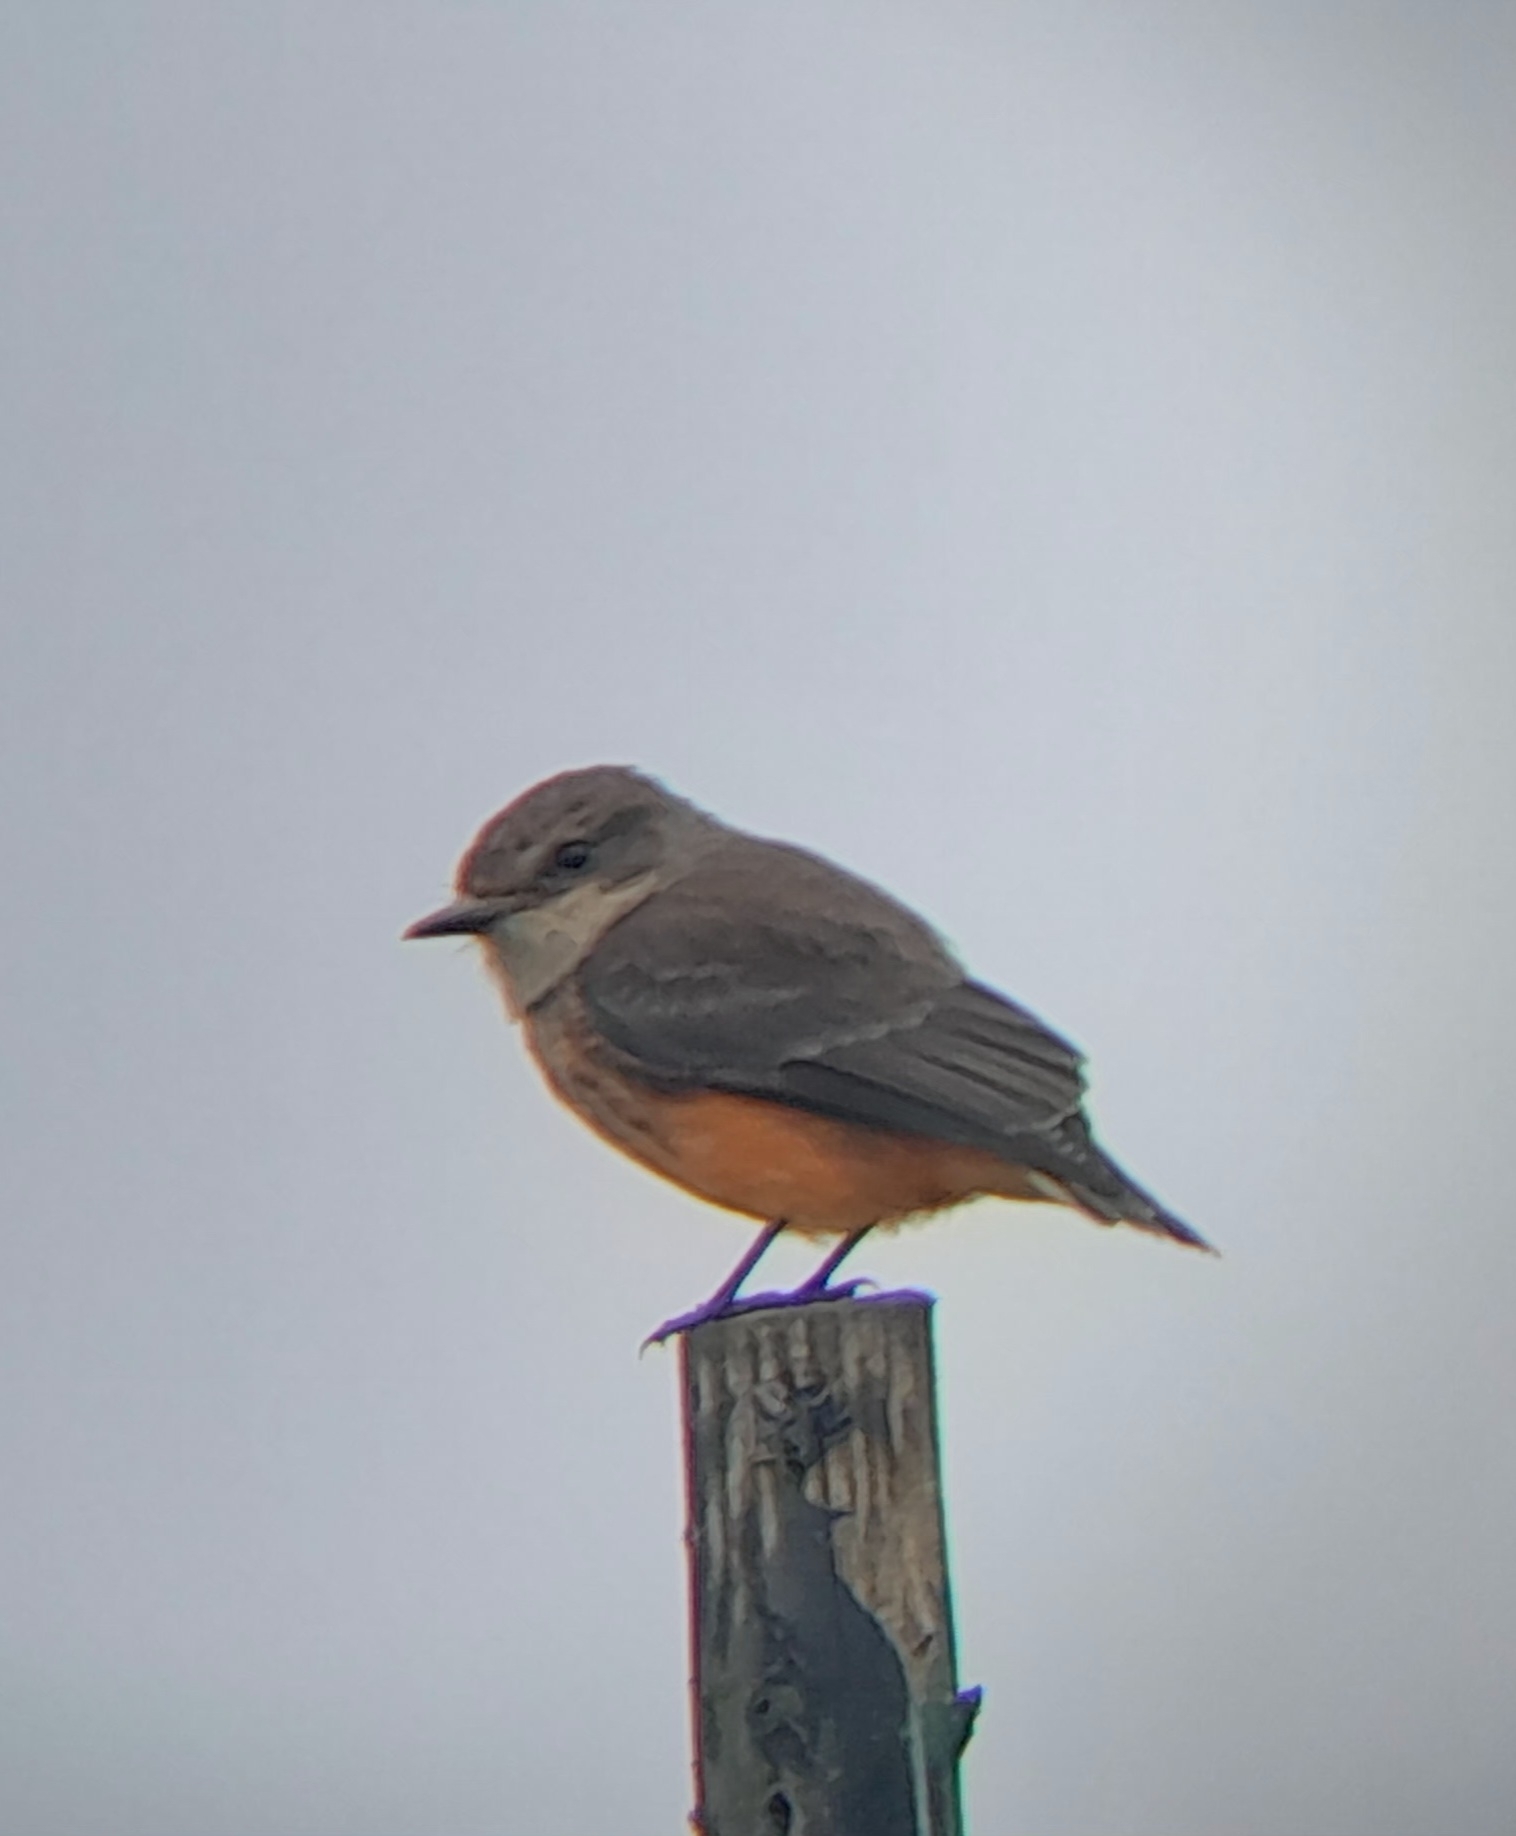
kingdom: Animalia
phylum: Chordata
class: Aves
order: Passeriformes
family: Tyrannidae
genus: Pyrocephalus
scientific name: Pyrocephalus rubinus
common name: Vermilion flycatcher
